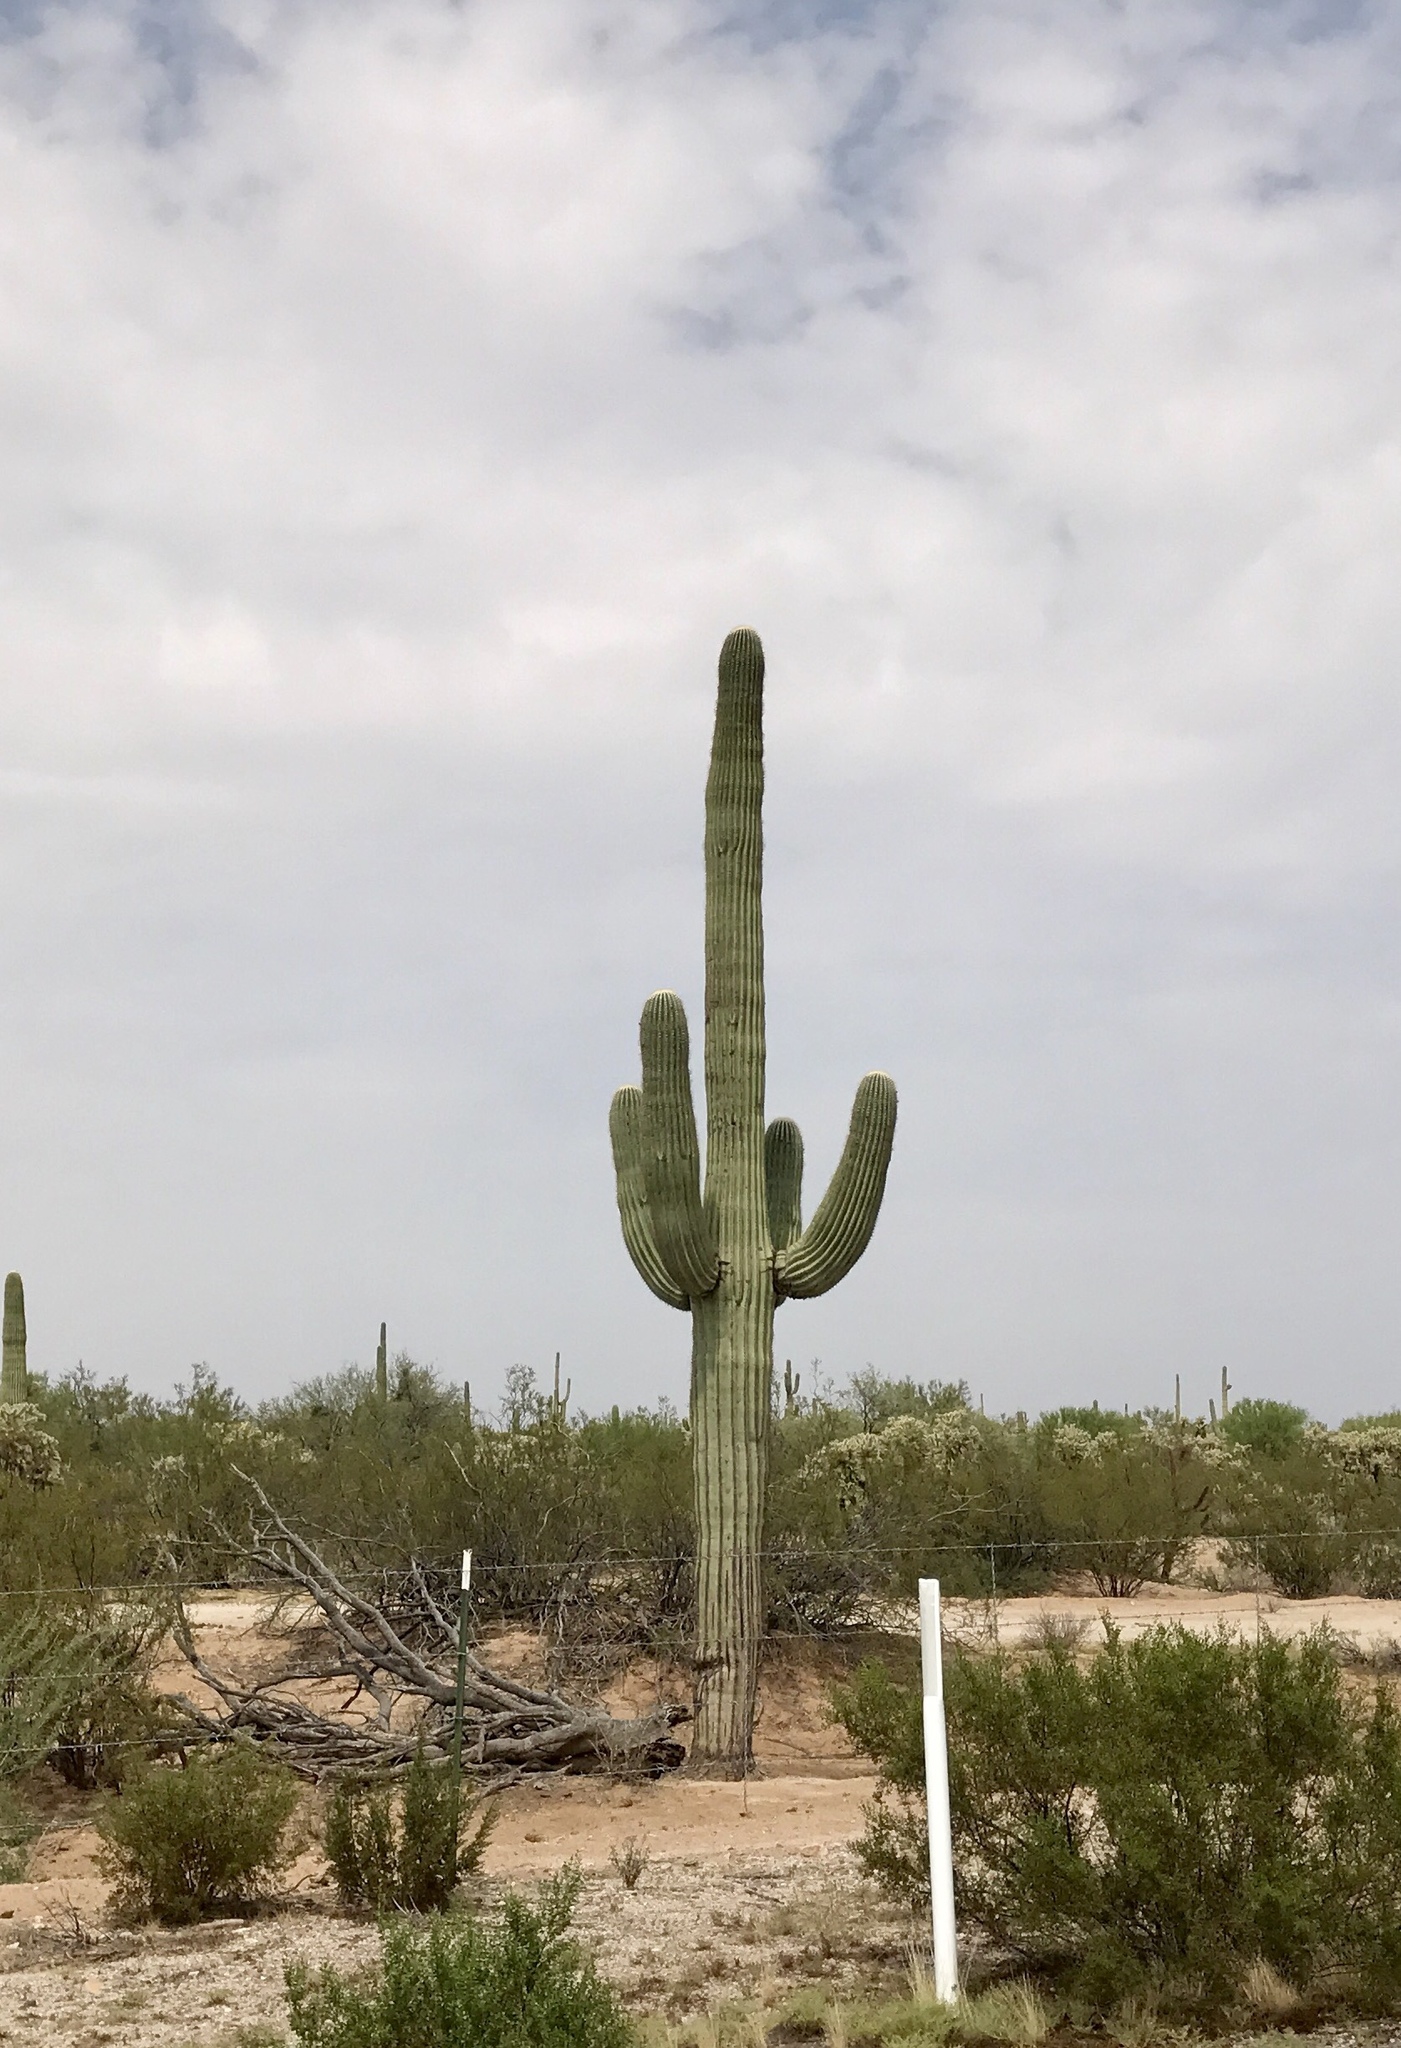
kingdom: Plantae
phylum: Tracheophyta
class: Magnoliopsida
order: Caryophyllales
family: Cactaceae
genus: Carnegiea
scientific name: Carnegiea gigantea
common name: Saguaro
